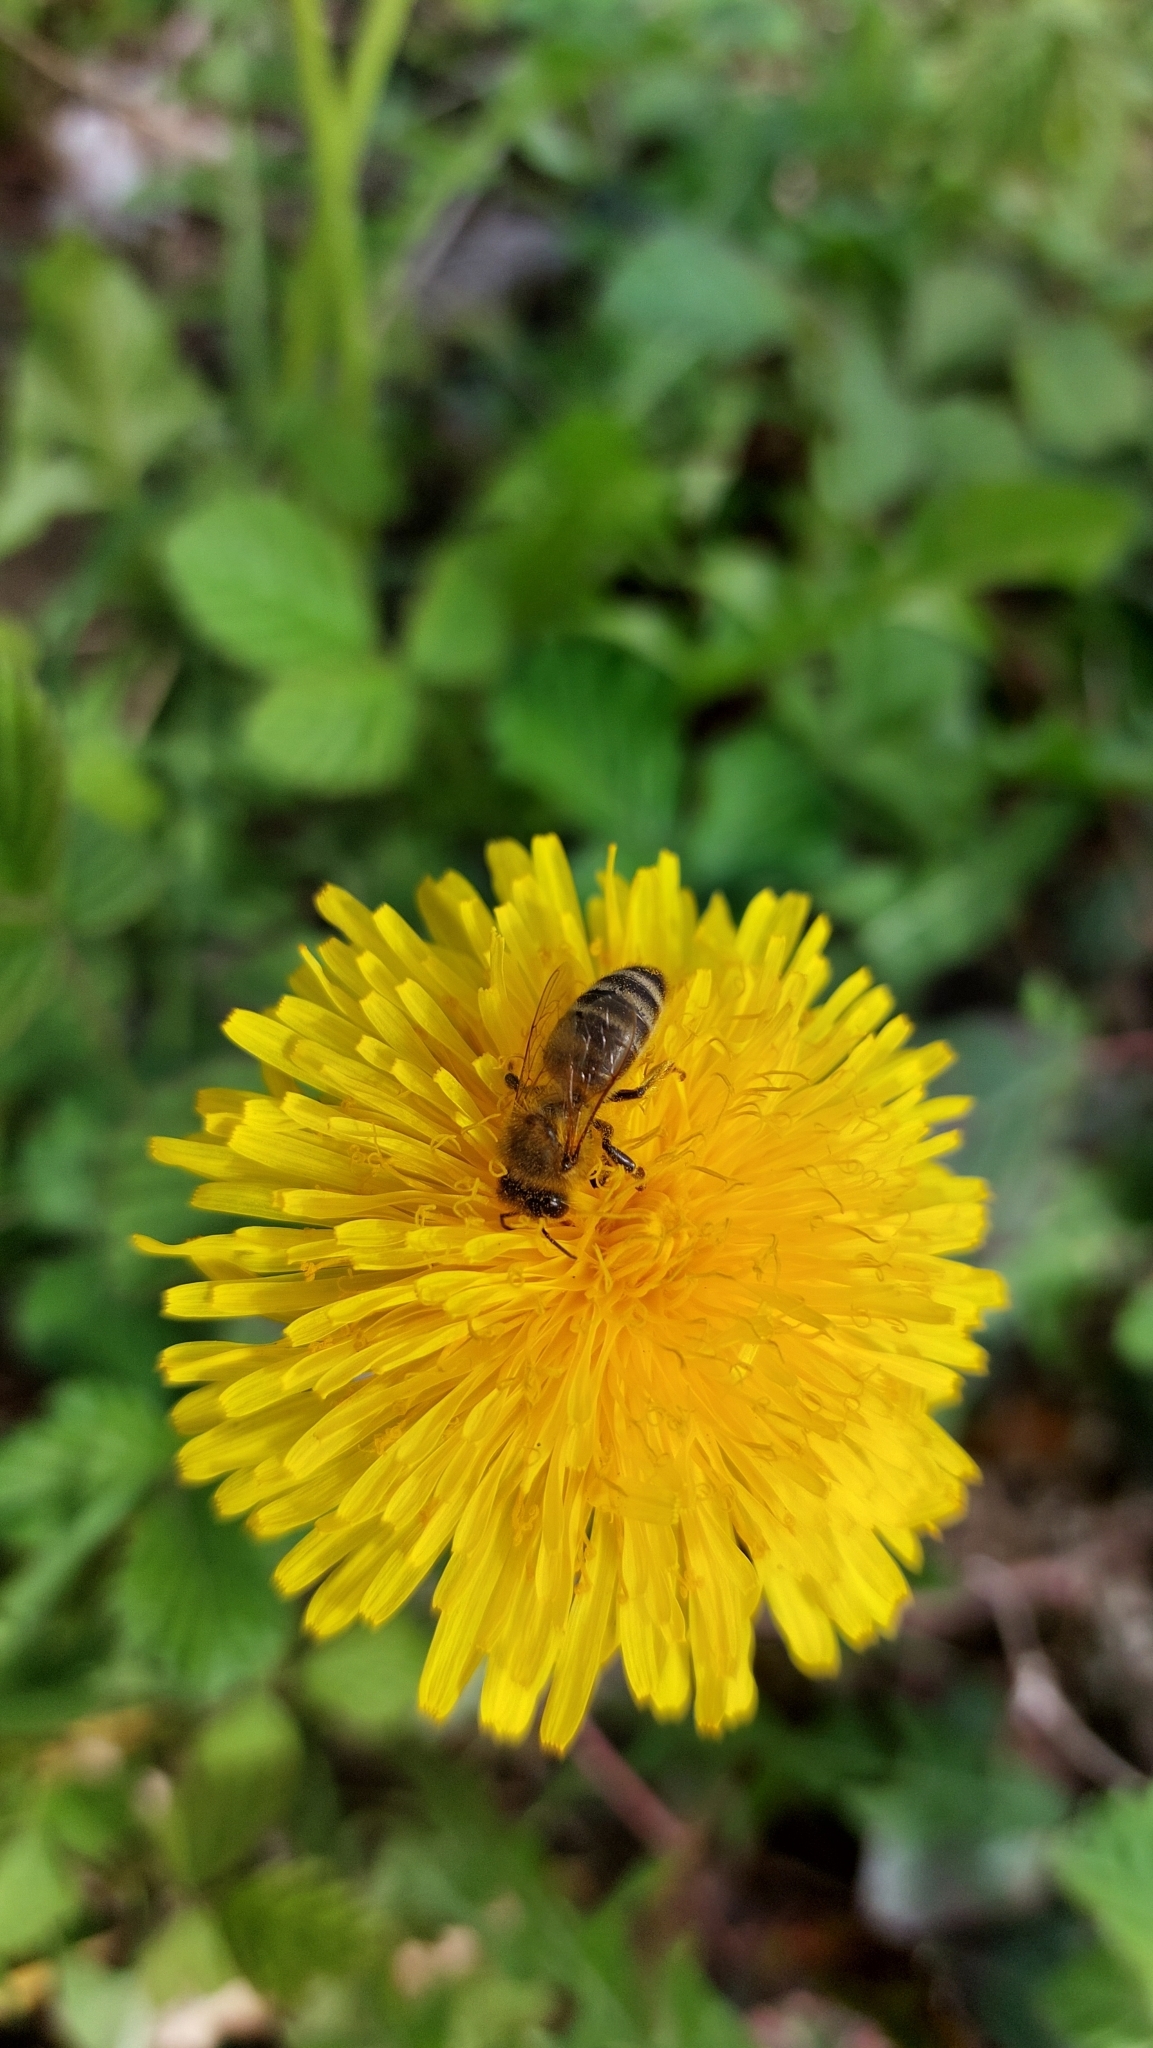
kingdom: Animalia
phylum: Arthropoda
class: Insecta
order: Hymenoptera
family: Apidae
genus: Apis
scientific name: Apis mellifera
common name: Honey bee
